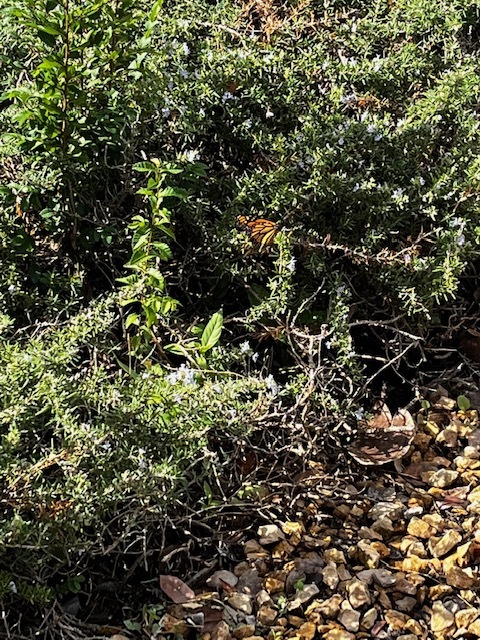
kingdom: Animalia
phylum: Arthropoda
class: Insecta
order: Lepidoptera
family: Nymphalidae
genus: Danaus
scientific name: Danaus plexippus
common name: Monarch
